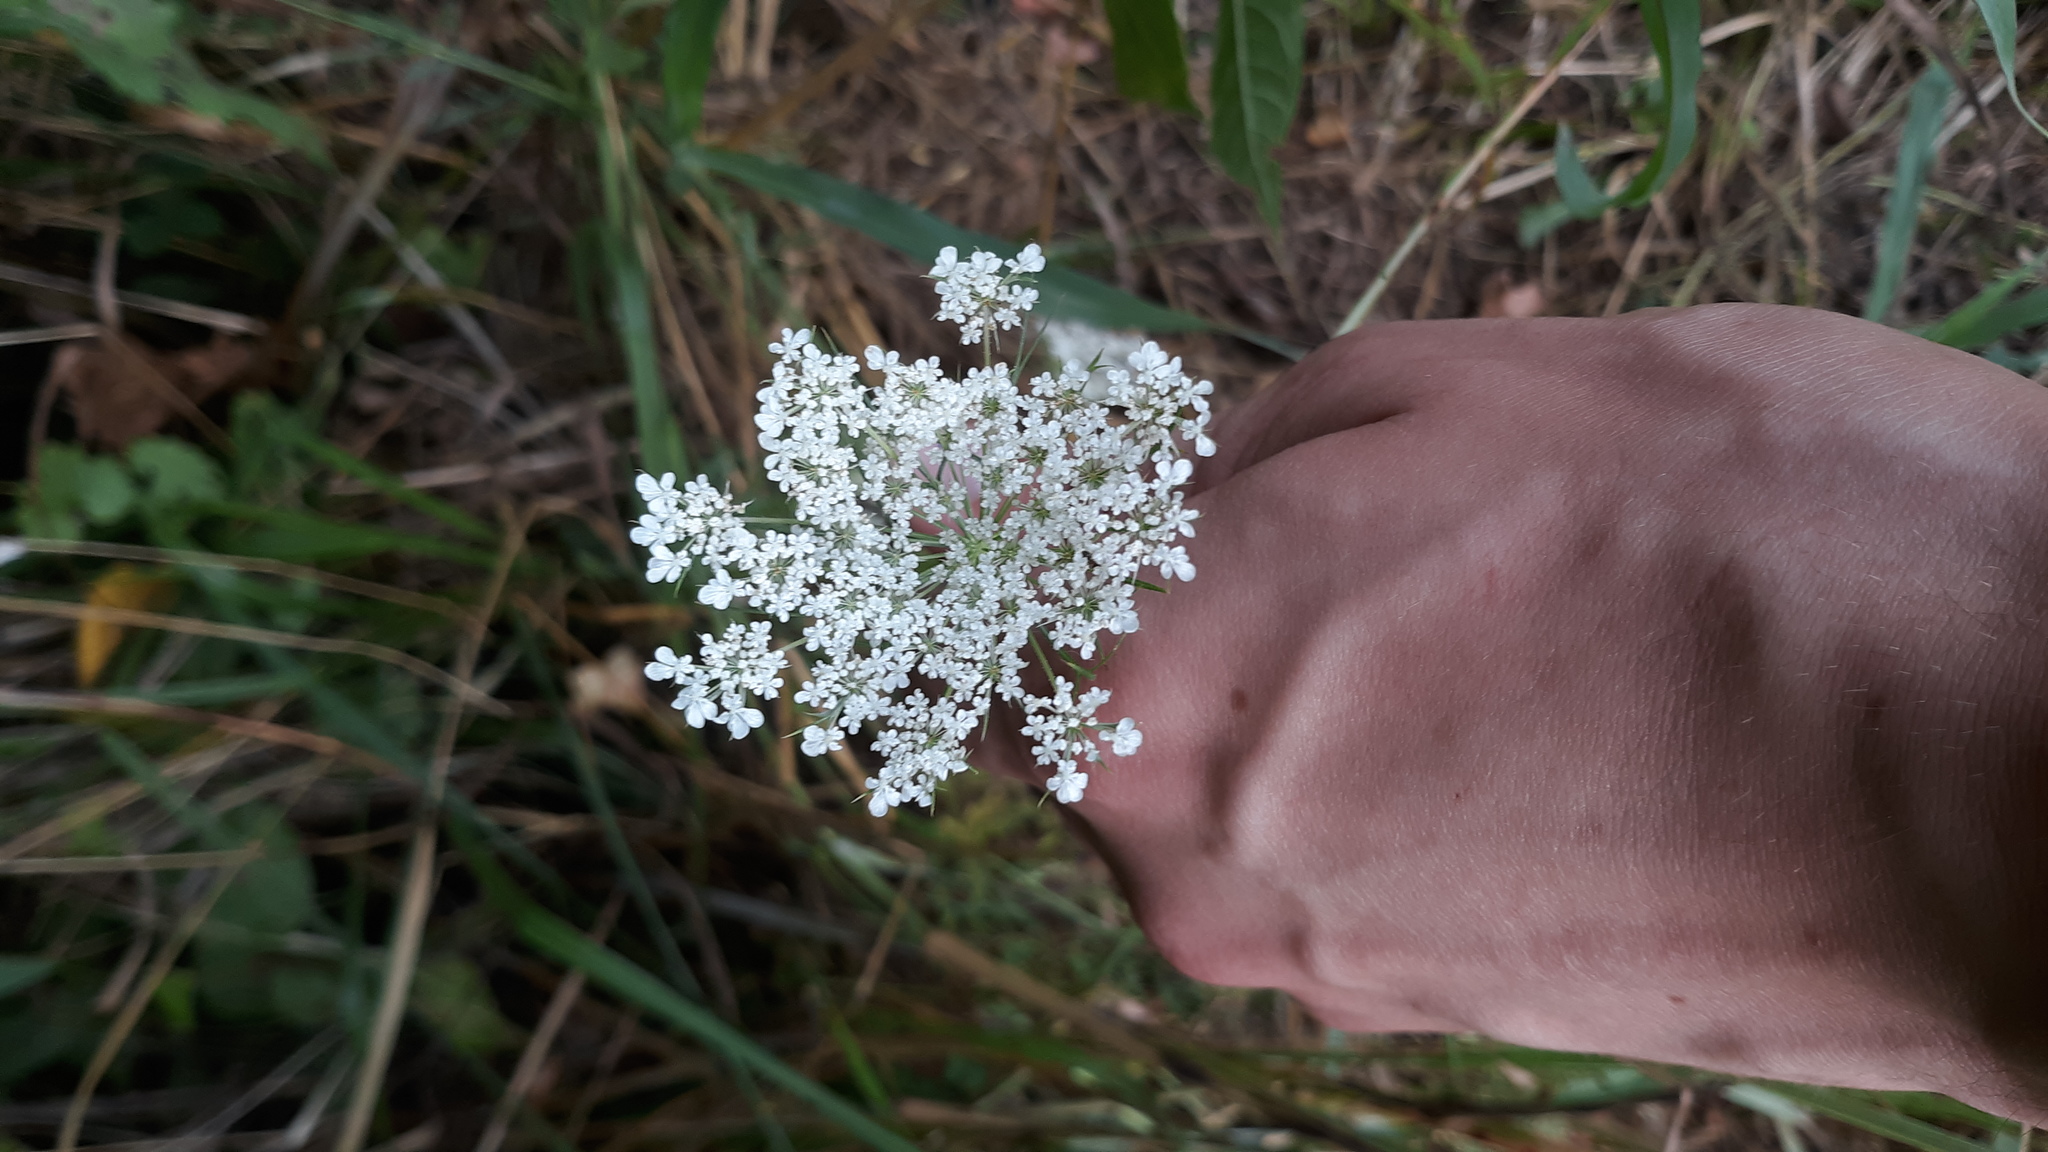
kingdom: Plantae
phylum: Tracheophyta
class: Magnoliopsida
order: Apiales
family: Apiaceae
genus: Daucus
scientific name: Daucus carota
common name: Wild carrot
